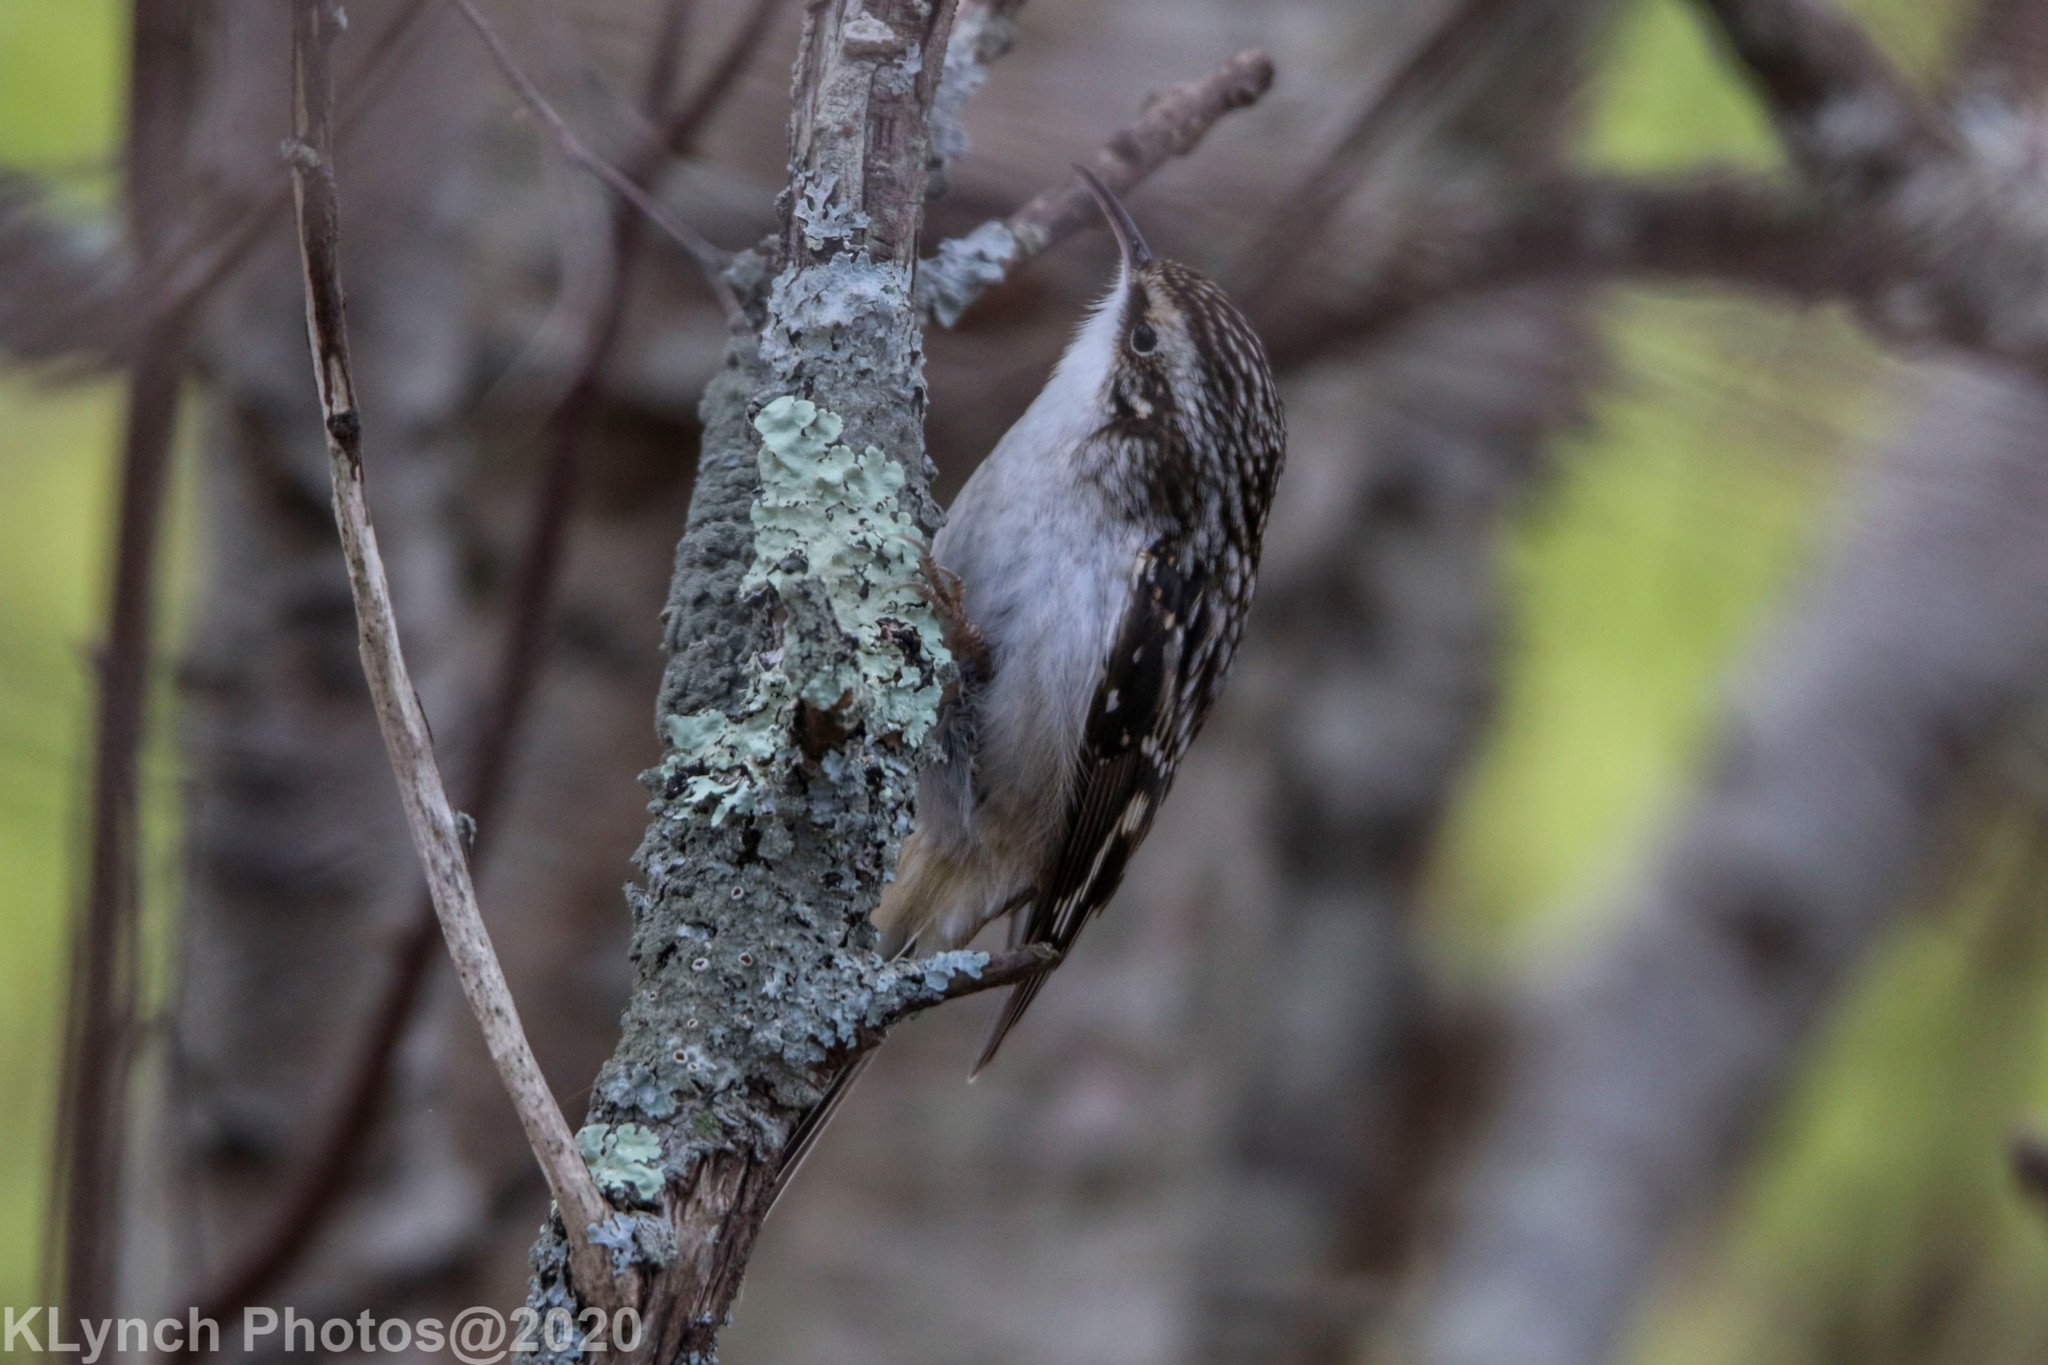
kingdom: Animalia
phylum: Chordata
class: Aves
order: Passeriformes
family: Certhiidae
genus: Certhia
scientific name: Certhia americana
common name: Brown creeper
